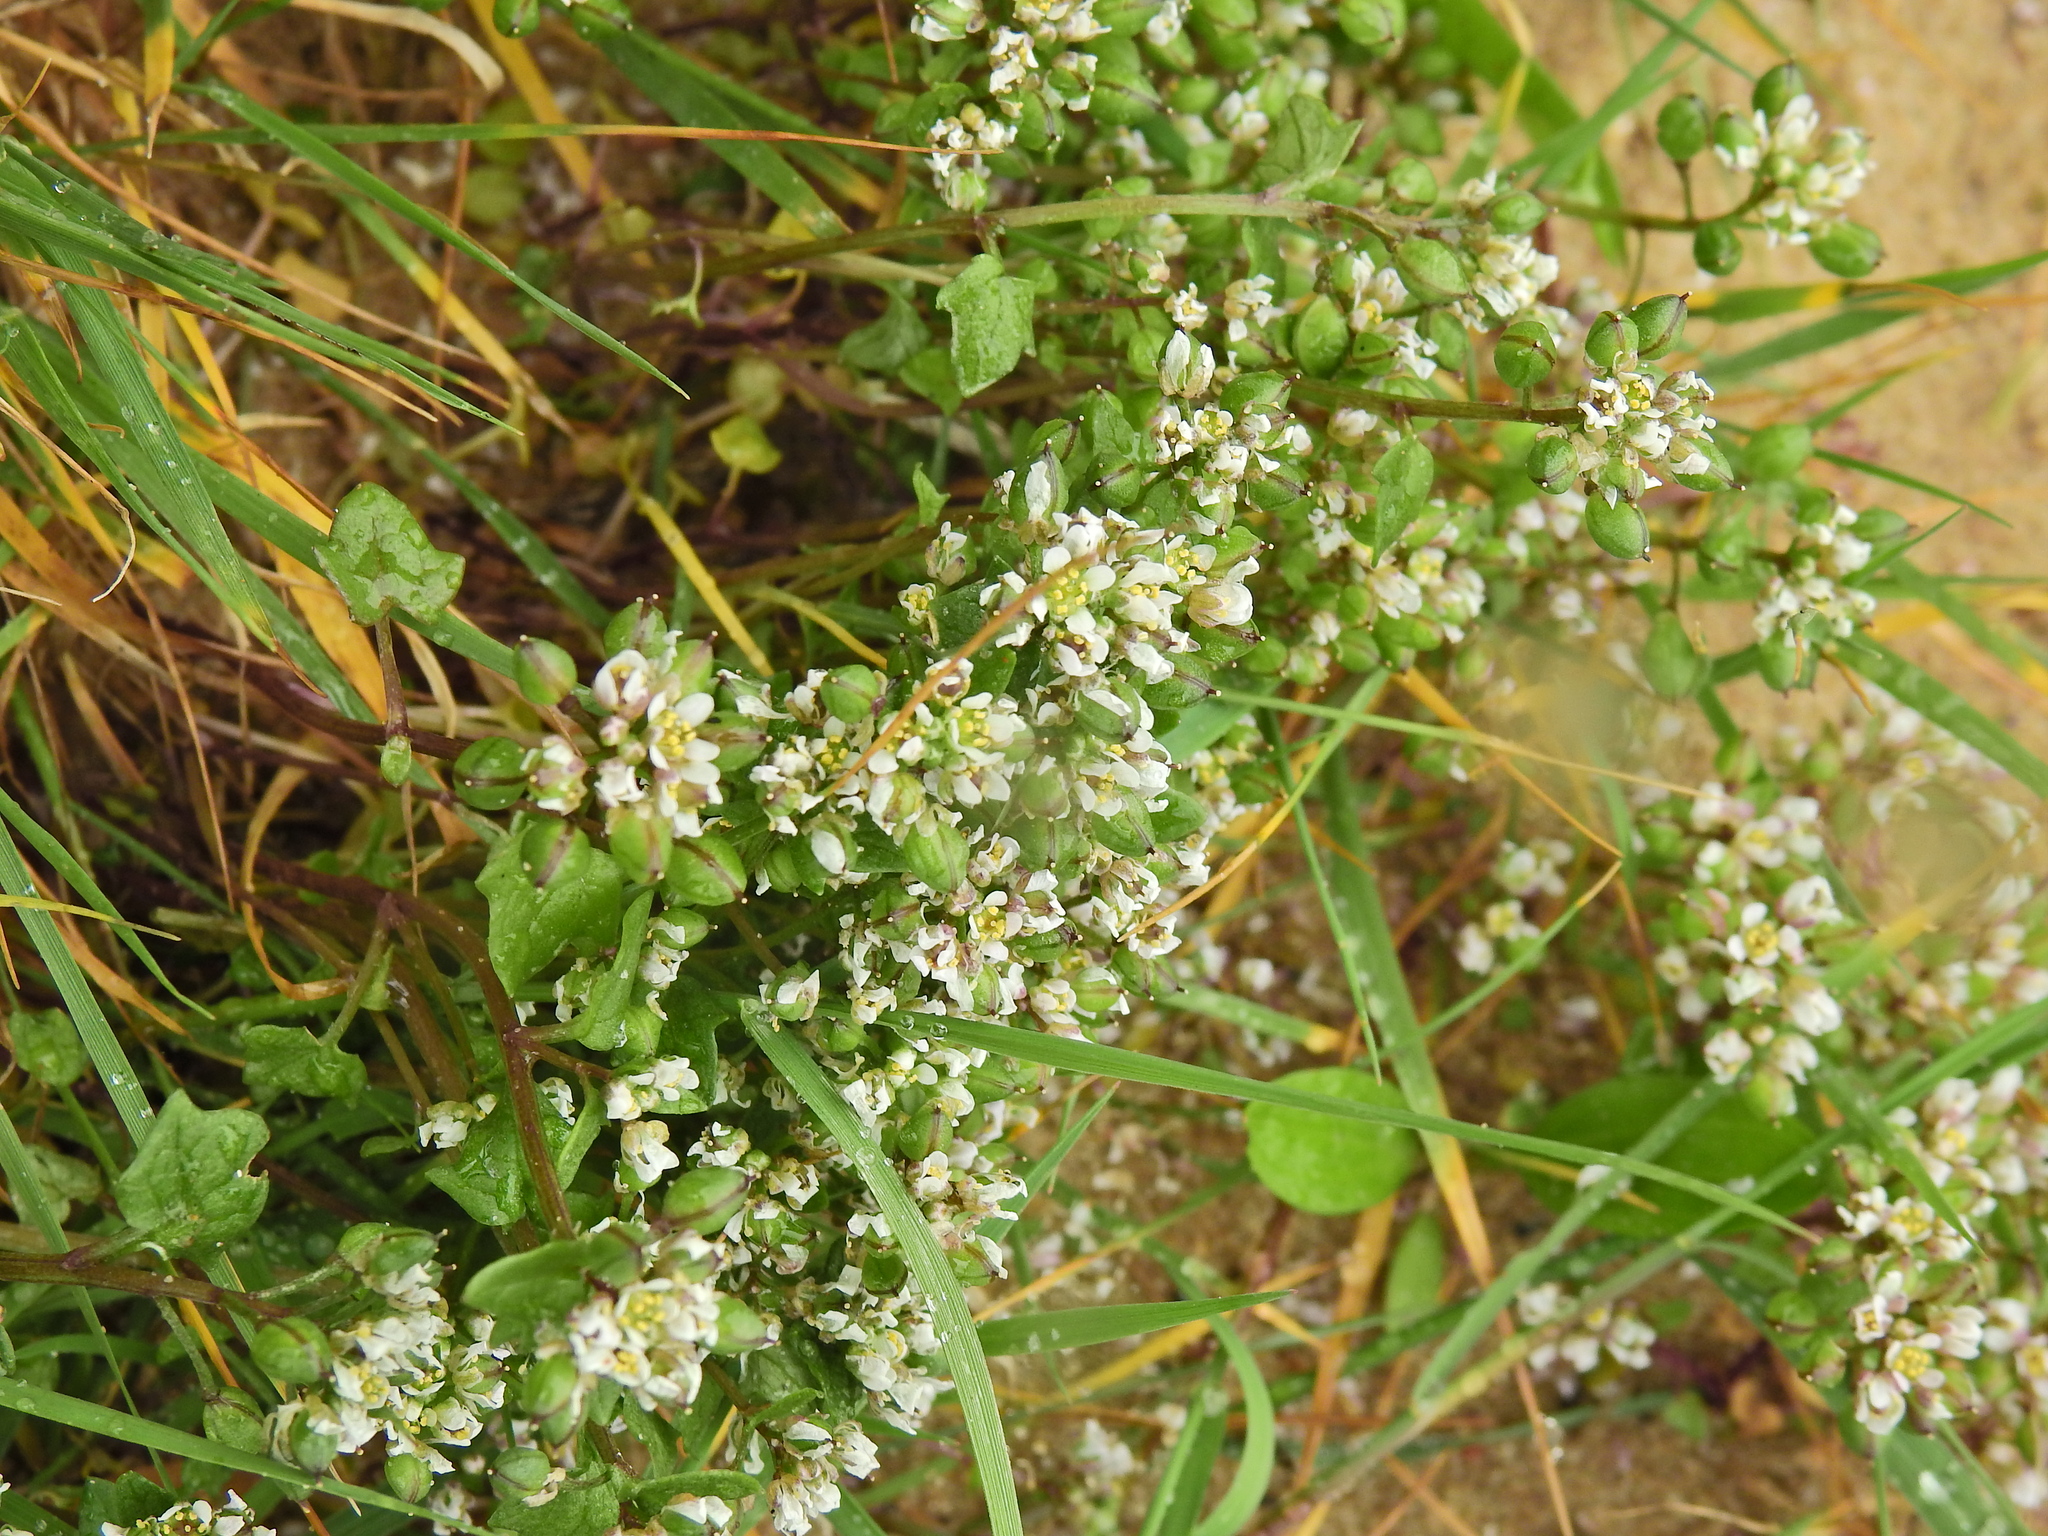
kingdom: Plantae
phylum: Tracheophyta
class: Magnoliopsida
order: Brassicales
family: Brassicaceae
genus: Cochlearia
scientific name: Cochlearia danica
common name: Early scurvygrass
